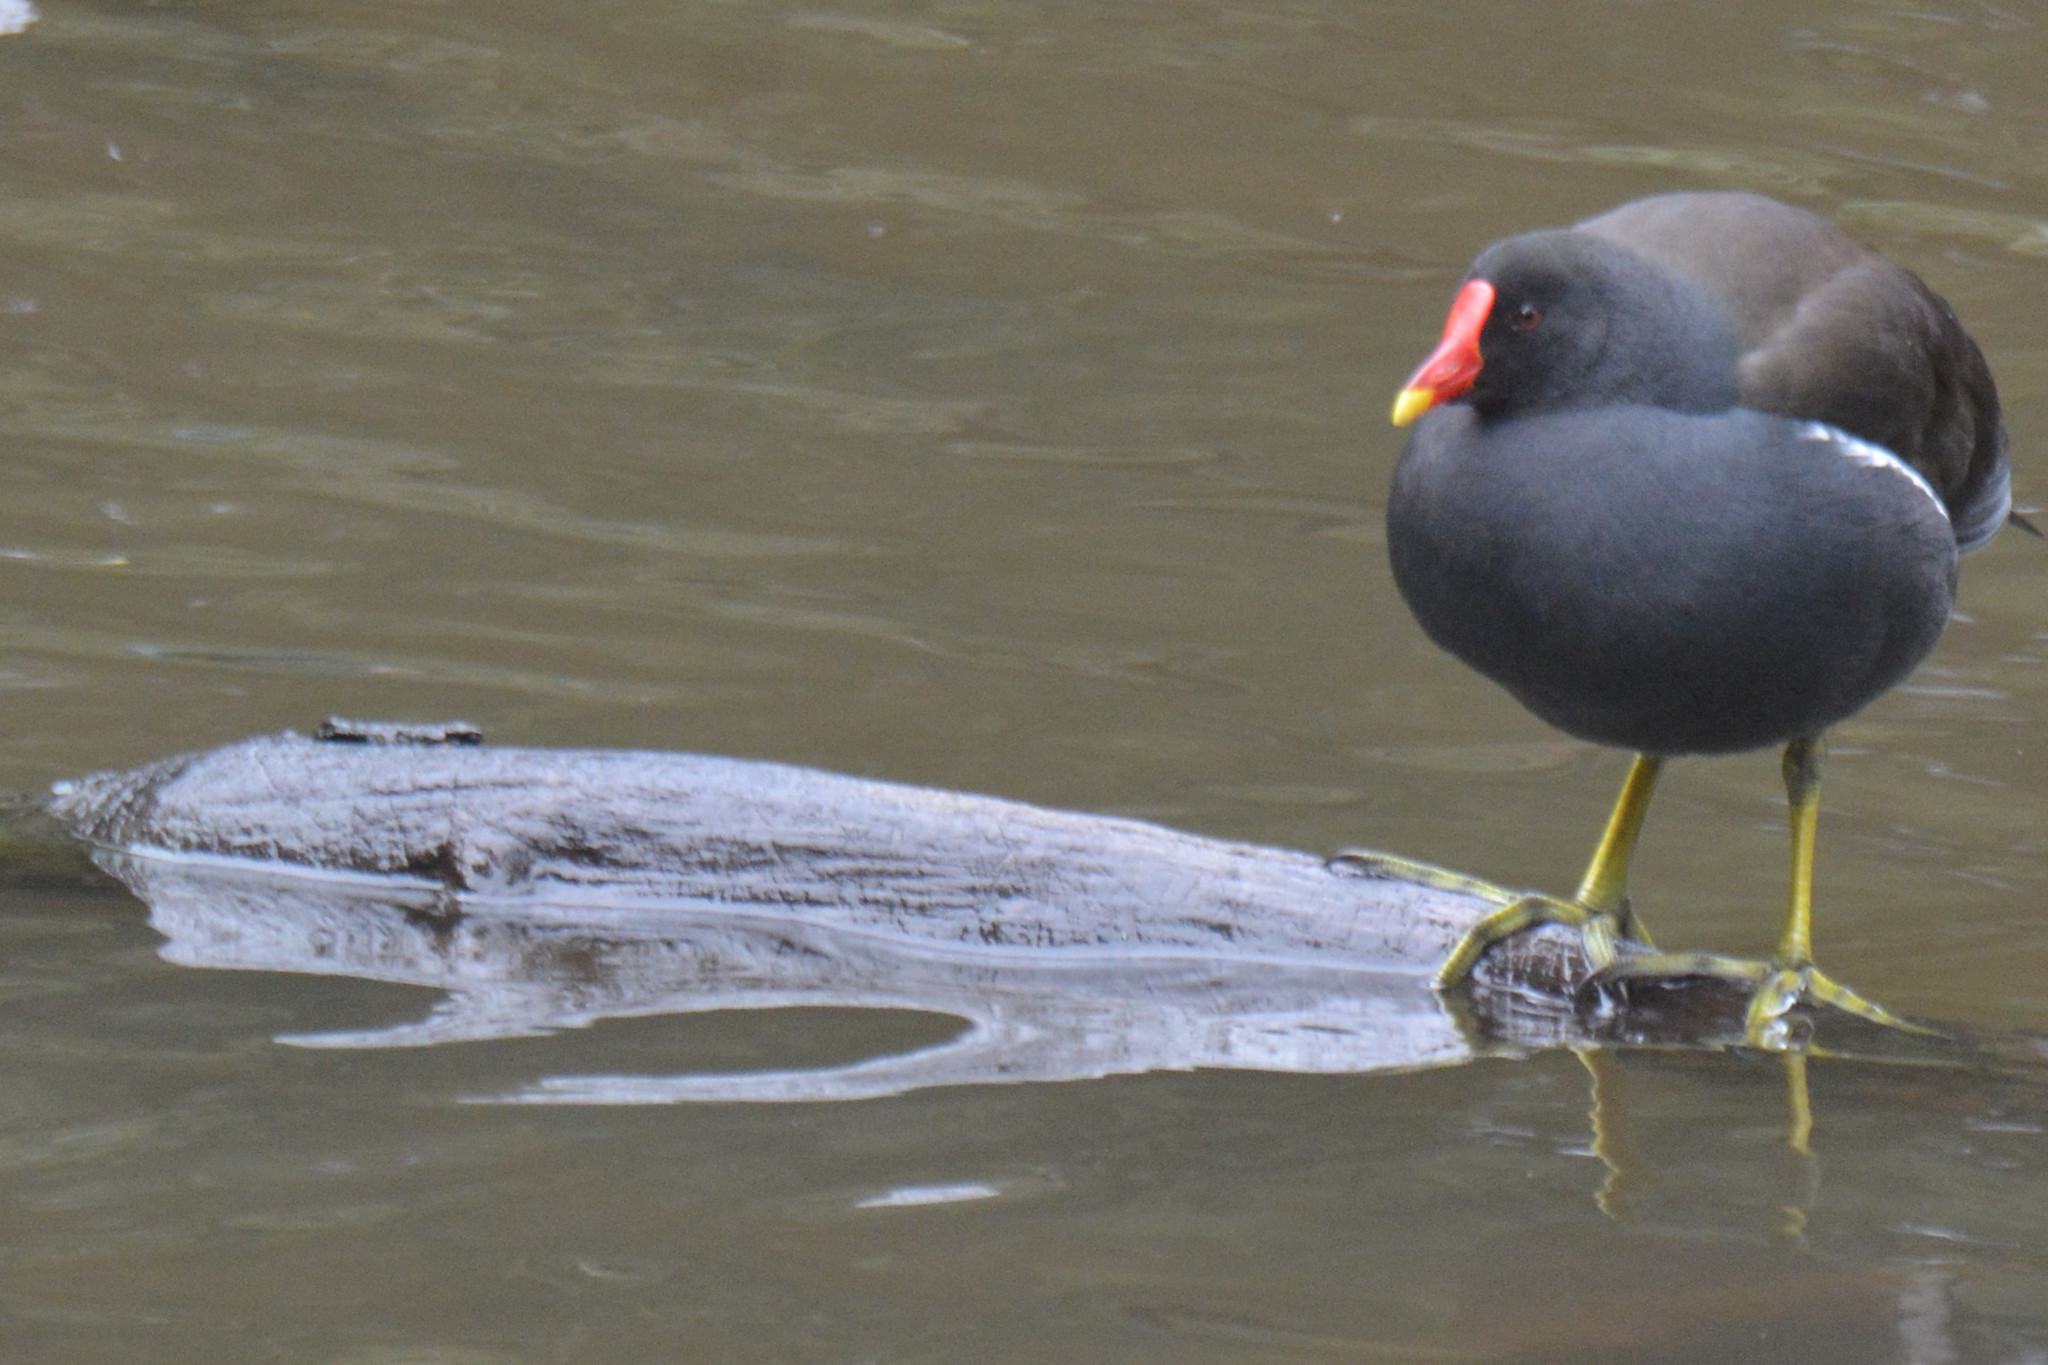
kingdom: Animalia
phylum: Chordata
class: Aves
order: Gruiformes
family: Rallidae
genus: Gallinula
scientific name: Gallinula chloropus
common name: Common moorhen
